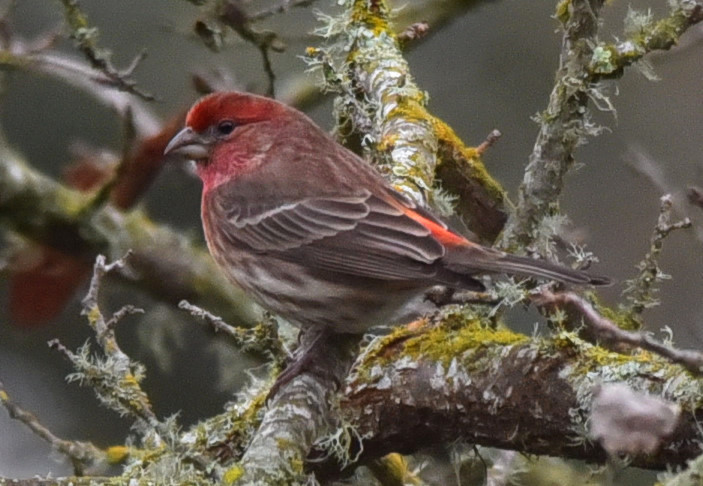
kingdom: Animalia
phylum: Chordata
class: Aves
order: Passeriformes
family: Fringillidae
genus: Haemorhous
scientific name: Haemorhous mexicanus
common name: House finch
